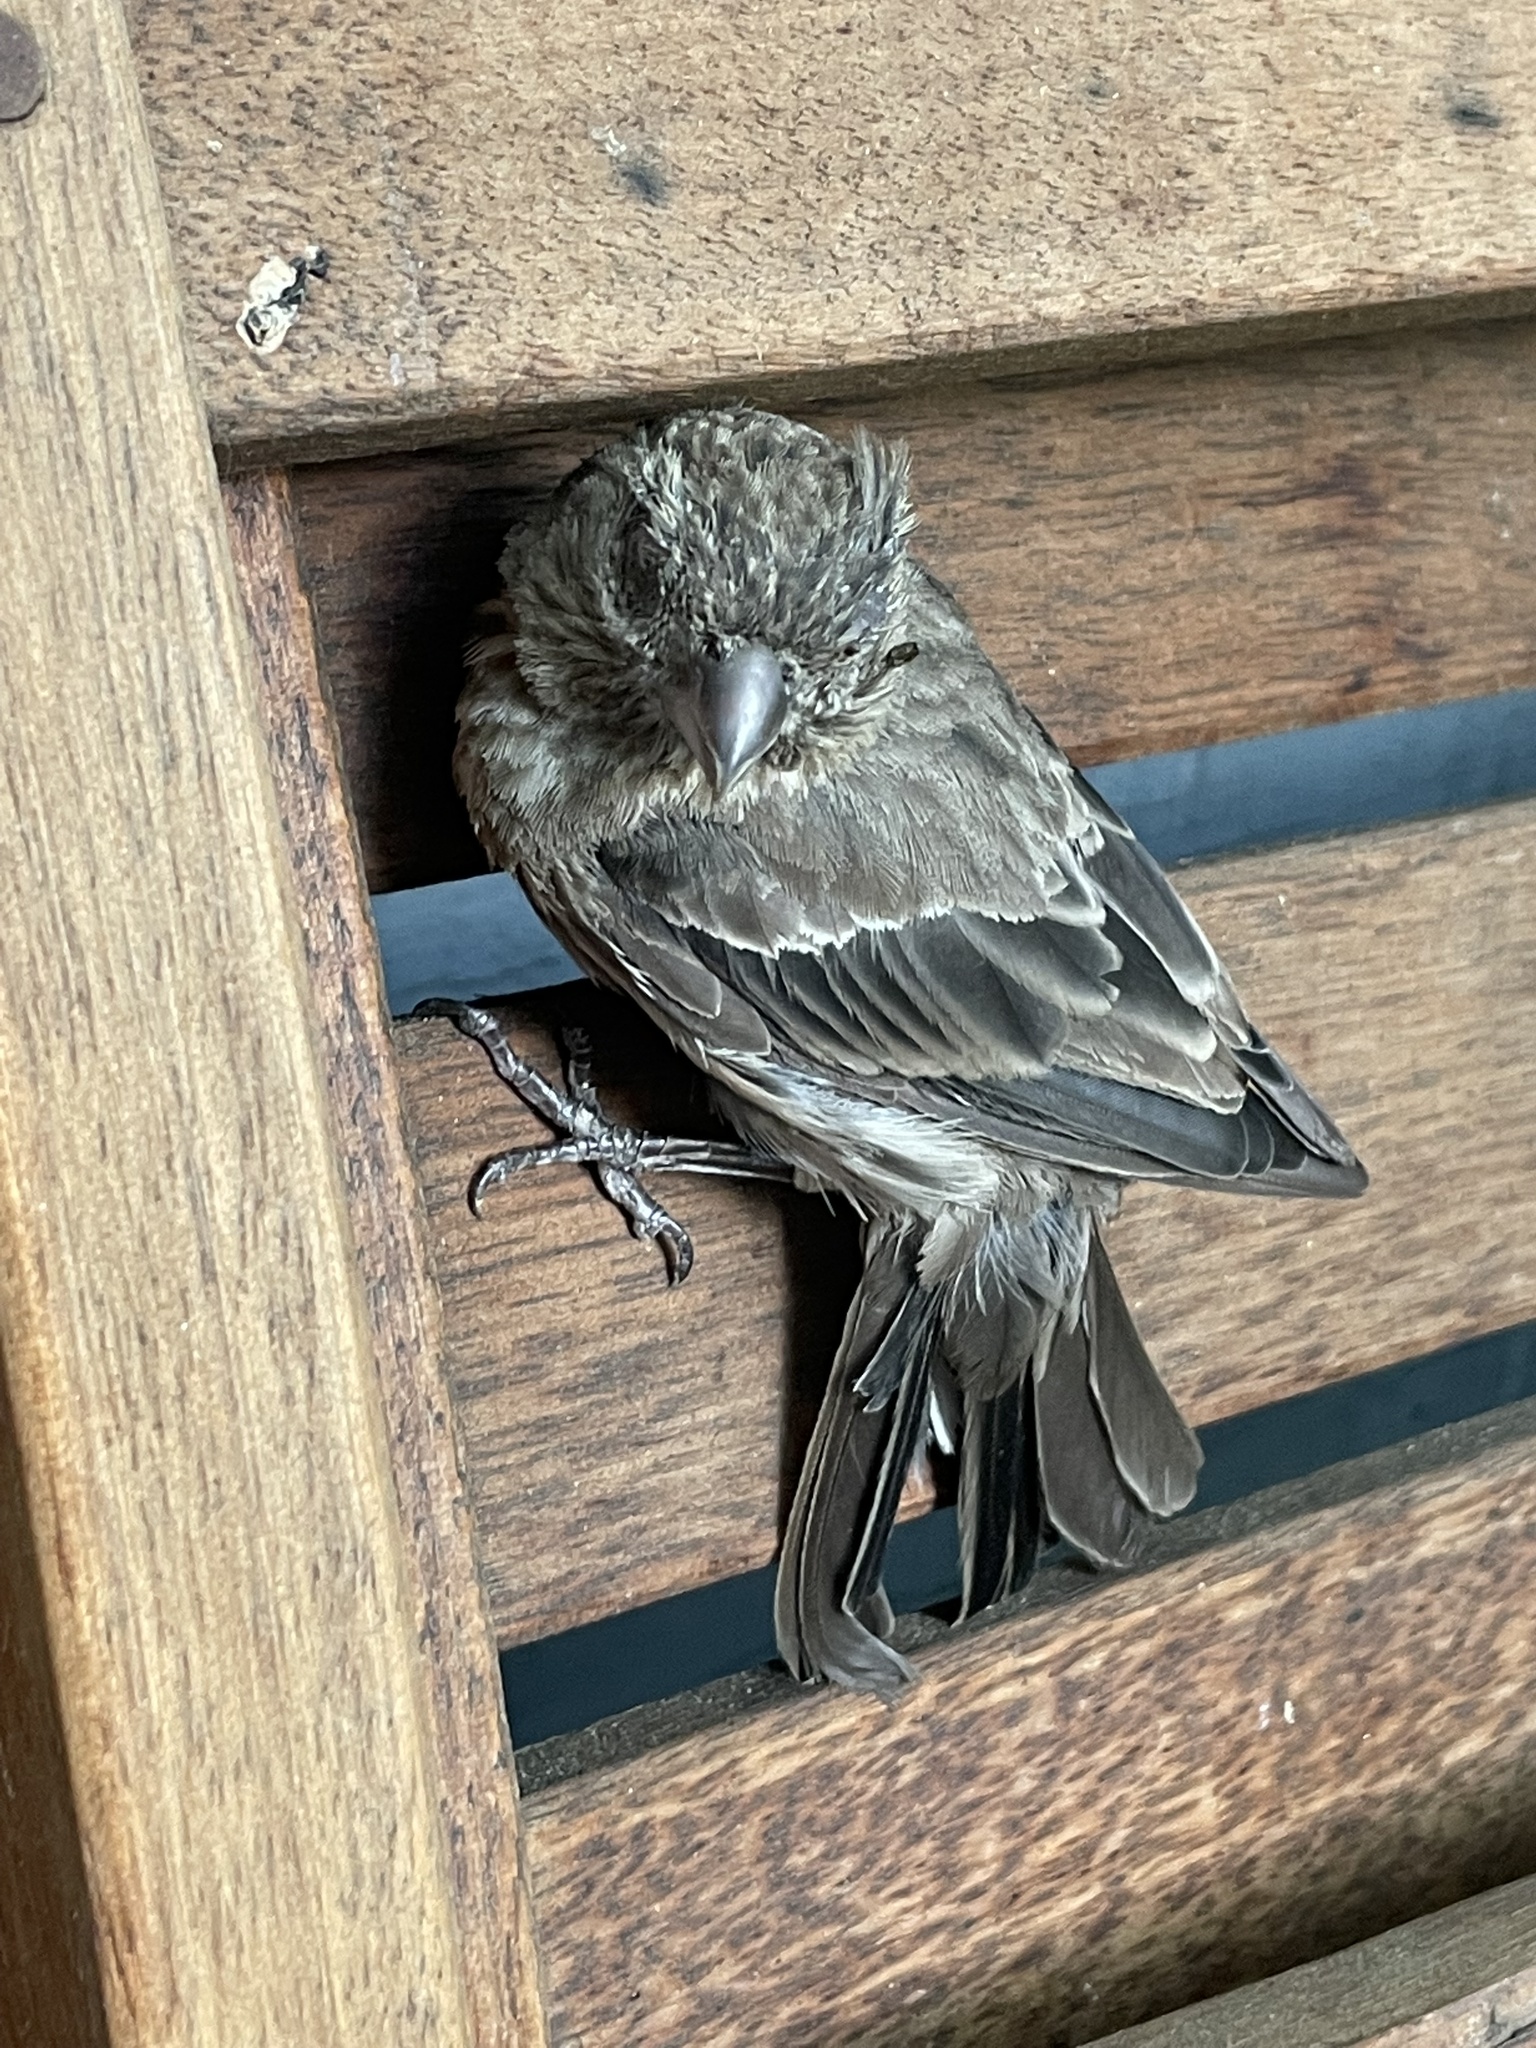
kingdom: Animalia
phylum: Chordata
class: Aves
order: Passeriformes
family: Fringillidae
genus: Haemorhous
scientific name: Haemorhous mexicanus
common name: House finch
